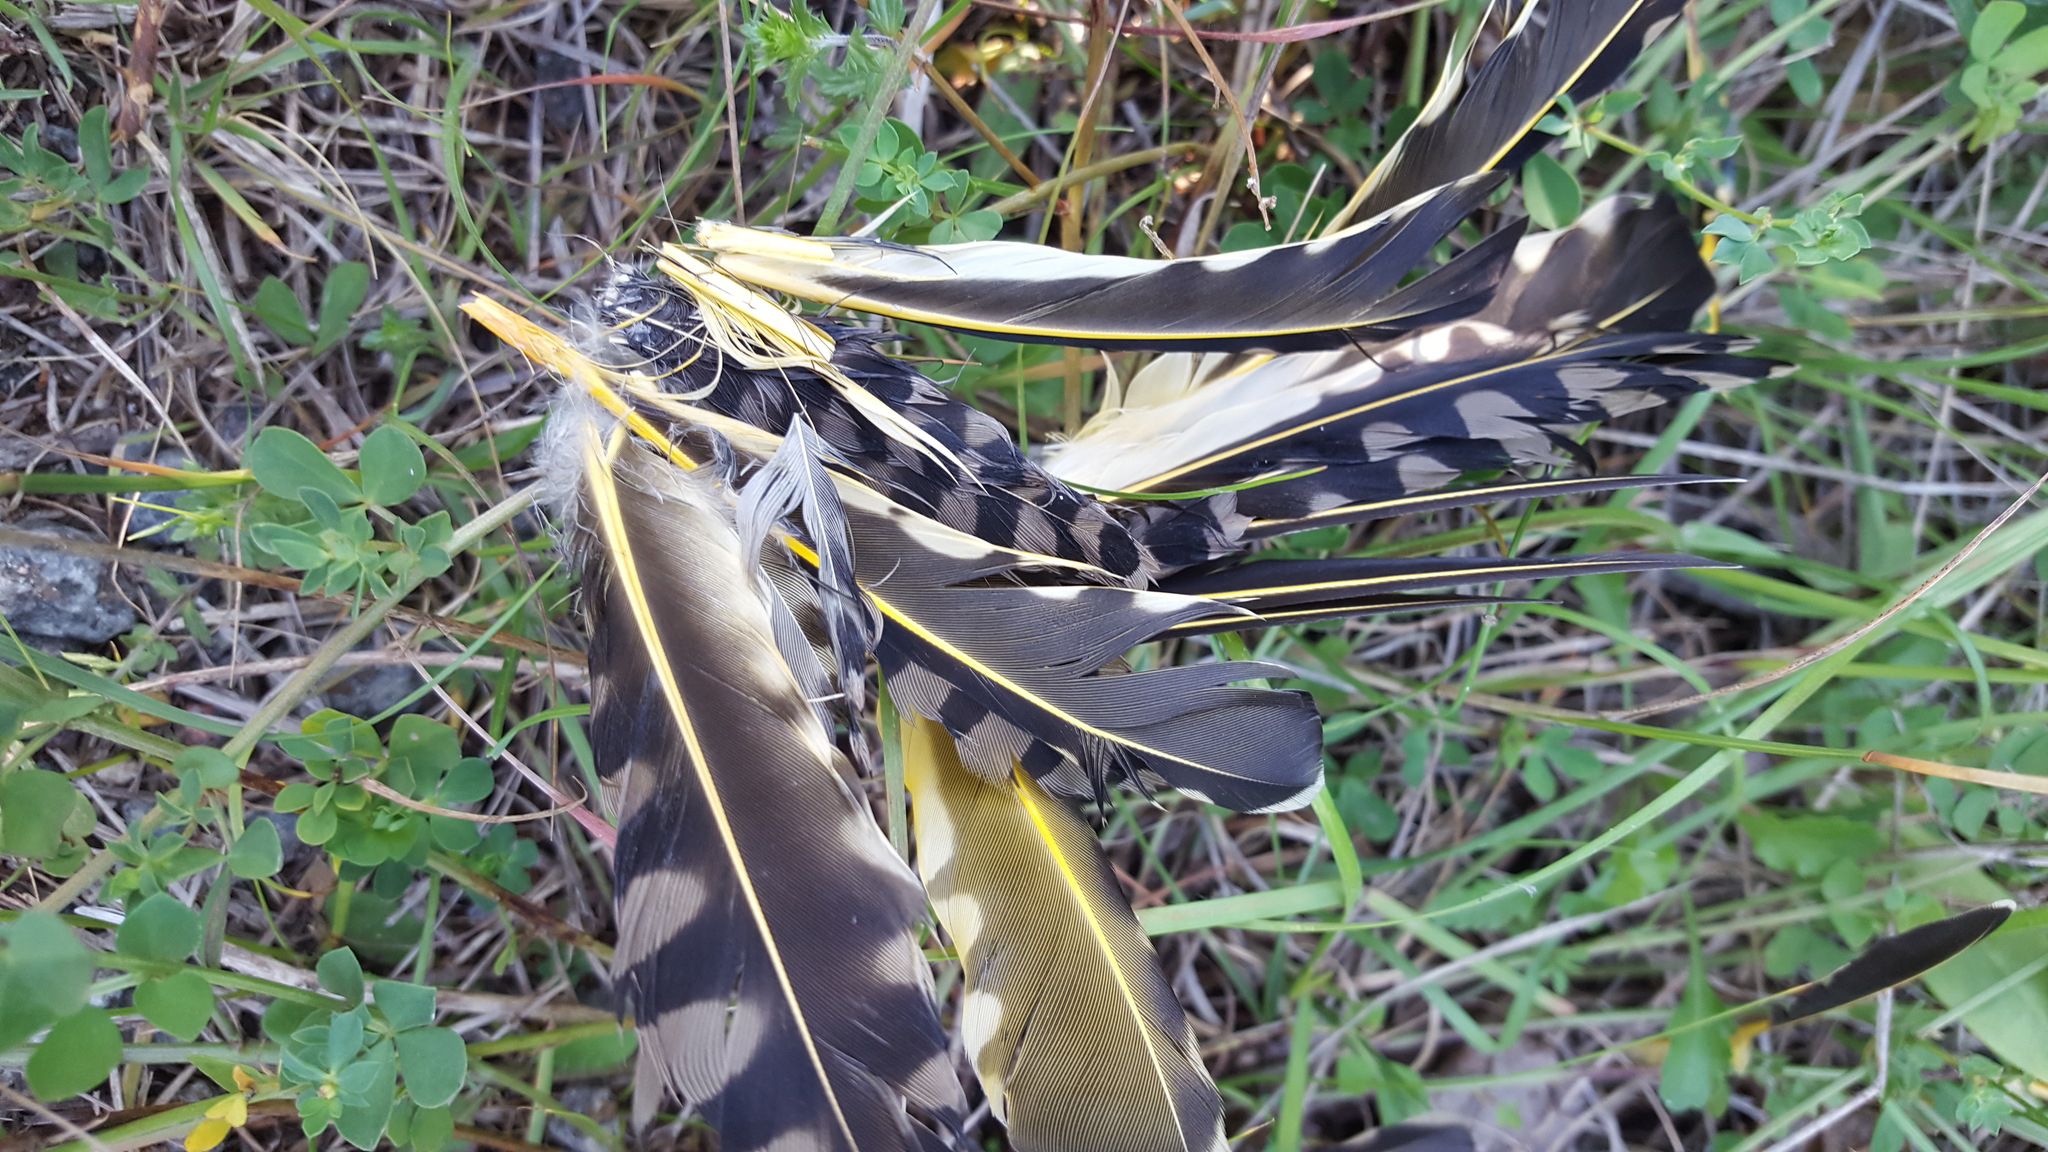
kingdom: Animalia
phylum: Chordata
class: Aves
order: Piciformes
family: Picidae
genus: Colaptes
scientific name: Colaptes auratus
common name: Northern flicker
